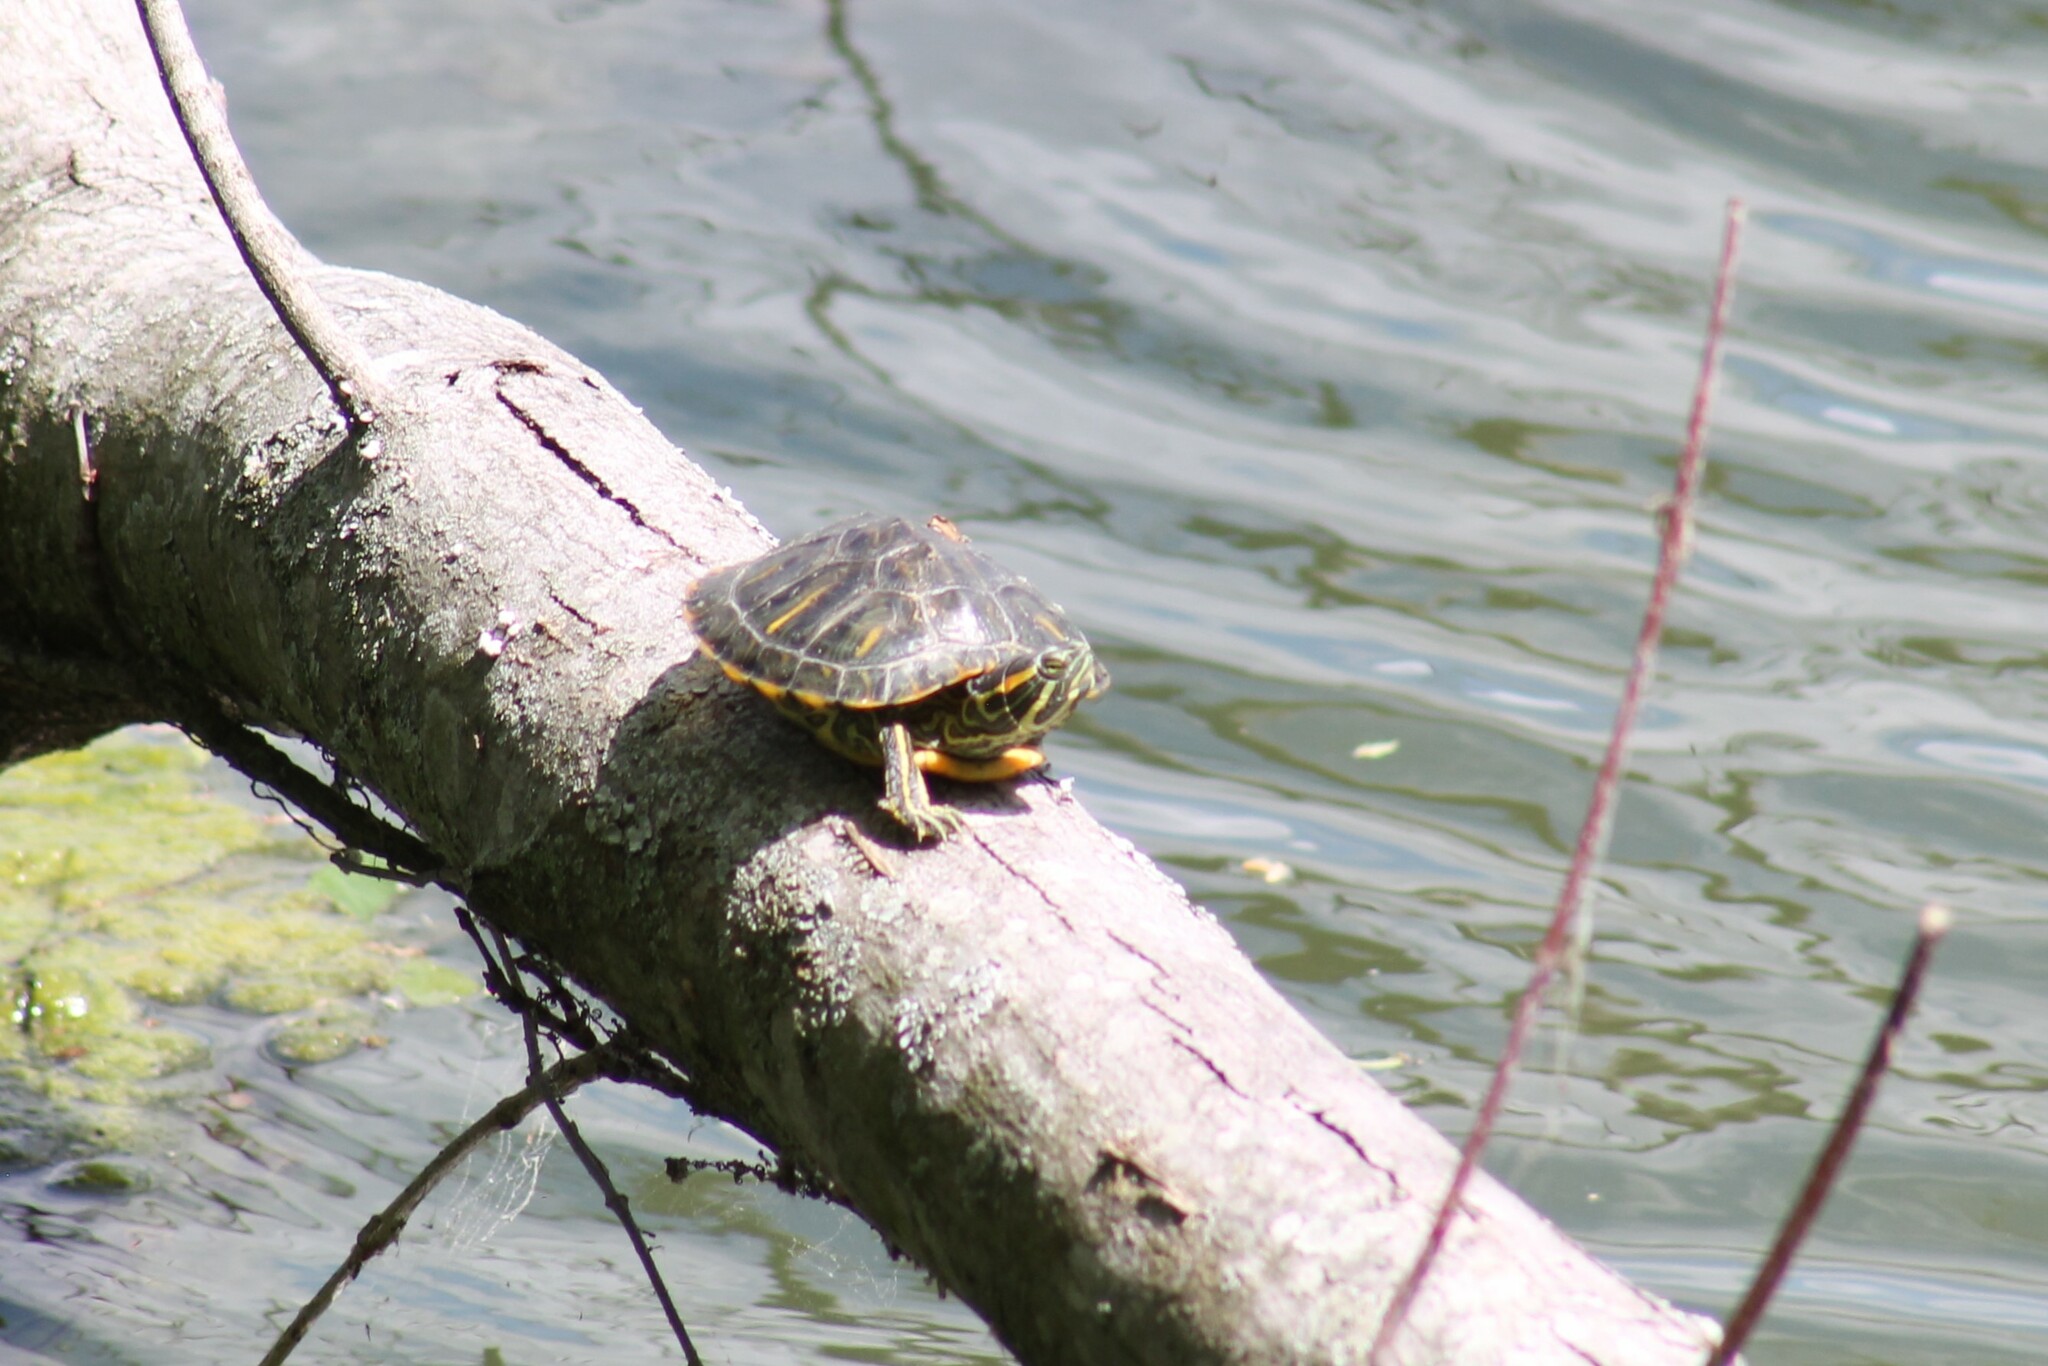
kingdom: Animalia
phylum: Chordata
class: Testudines
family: Emydidae
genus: Trachemys
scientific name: Trachemys scripta
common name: Slider
